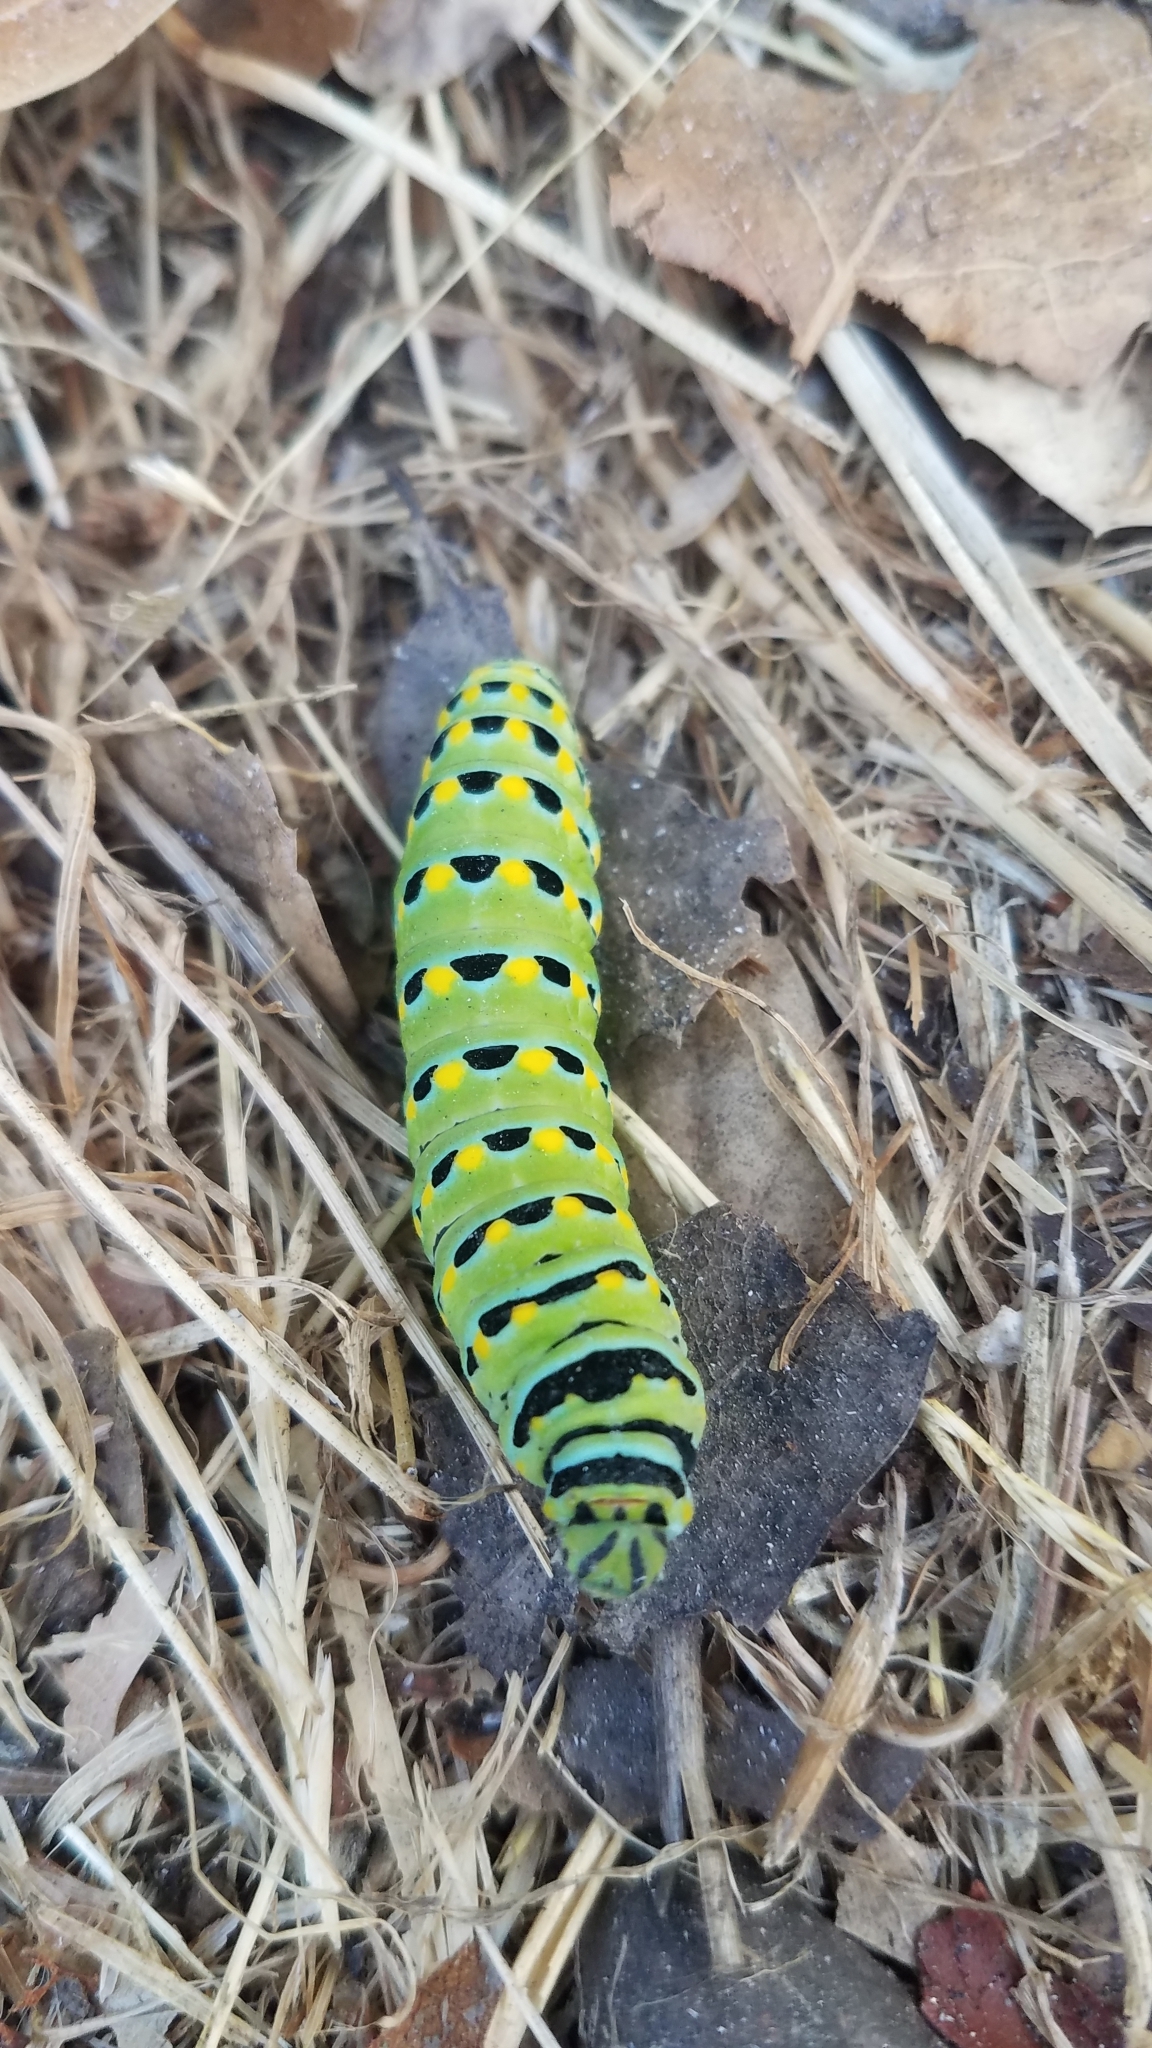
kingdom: Animalia
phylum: Arthropoda
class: Insecta
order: Lepidoptera
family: Papilionidae
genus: Papilio
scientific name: Papilio zelicaon
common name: Anise swallowtail
